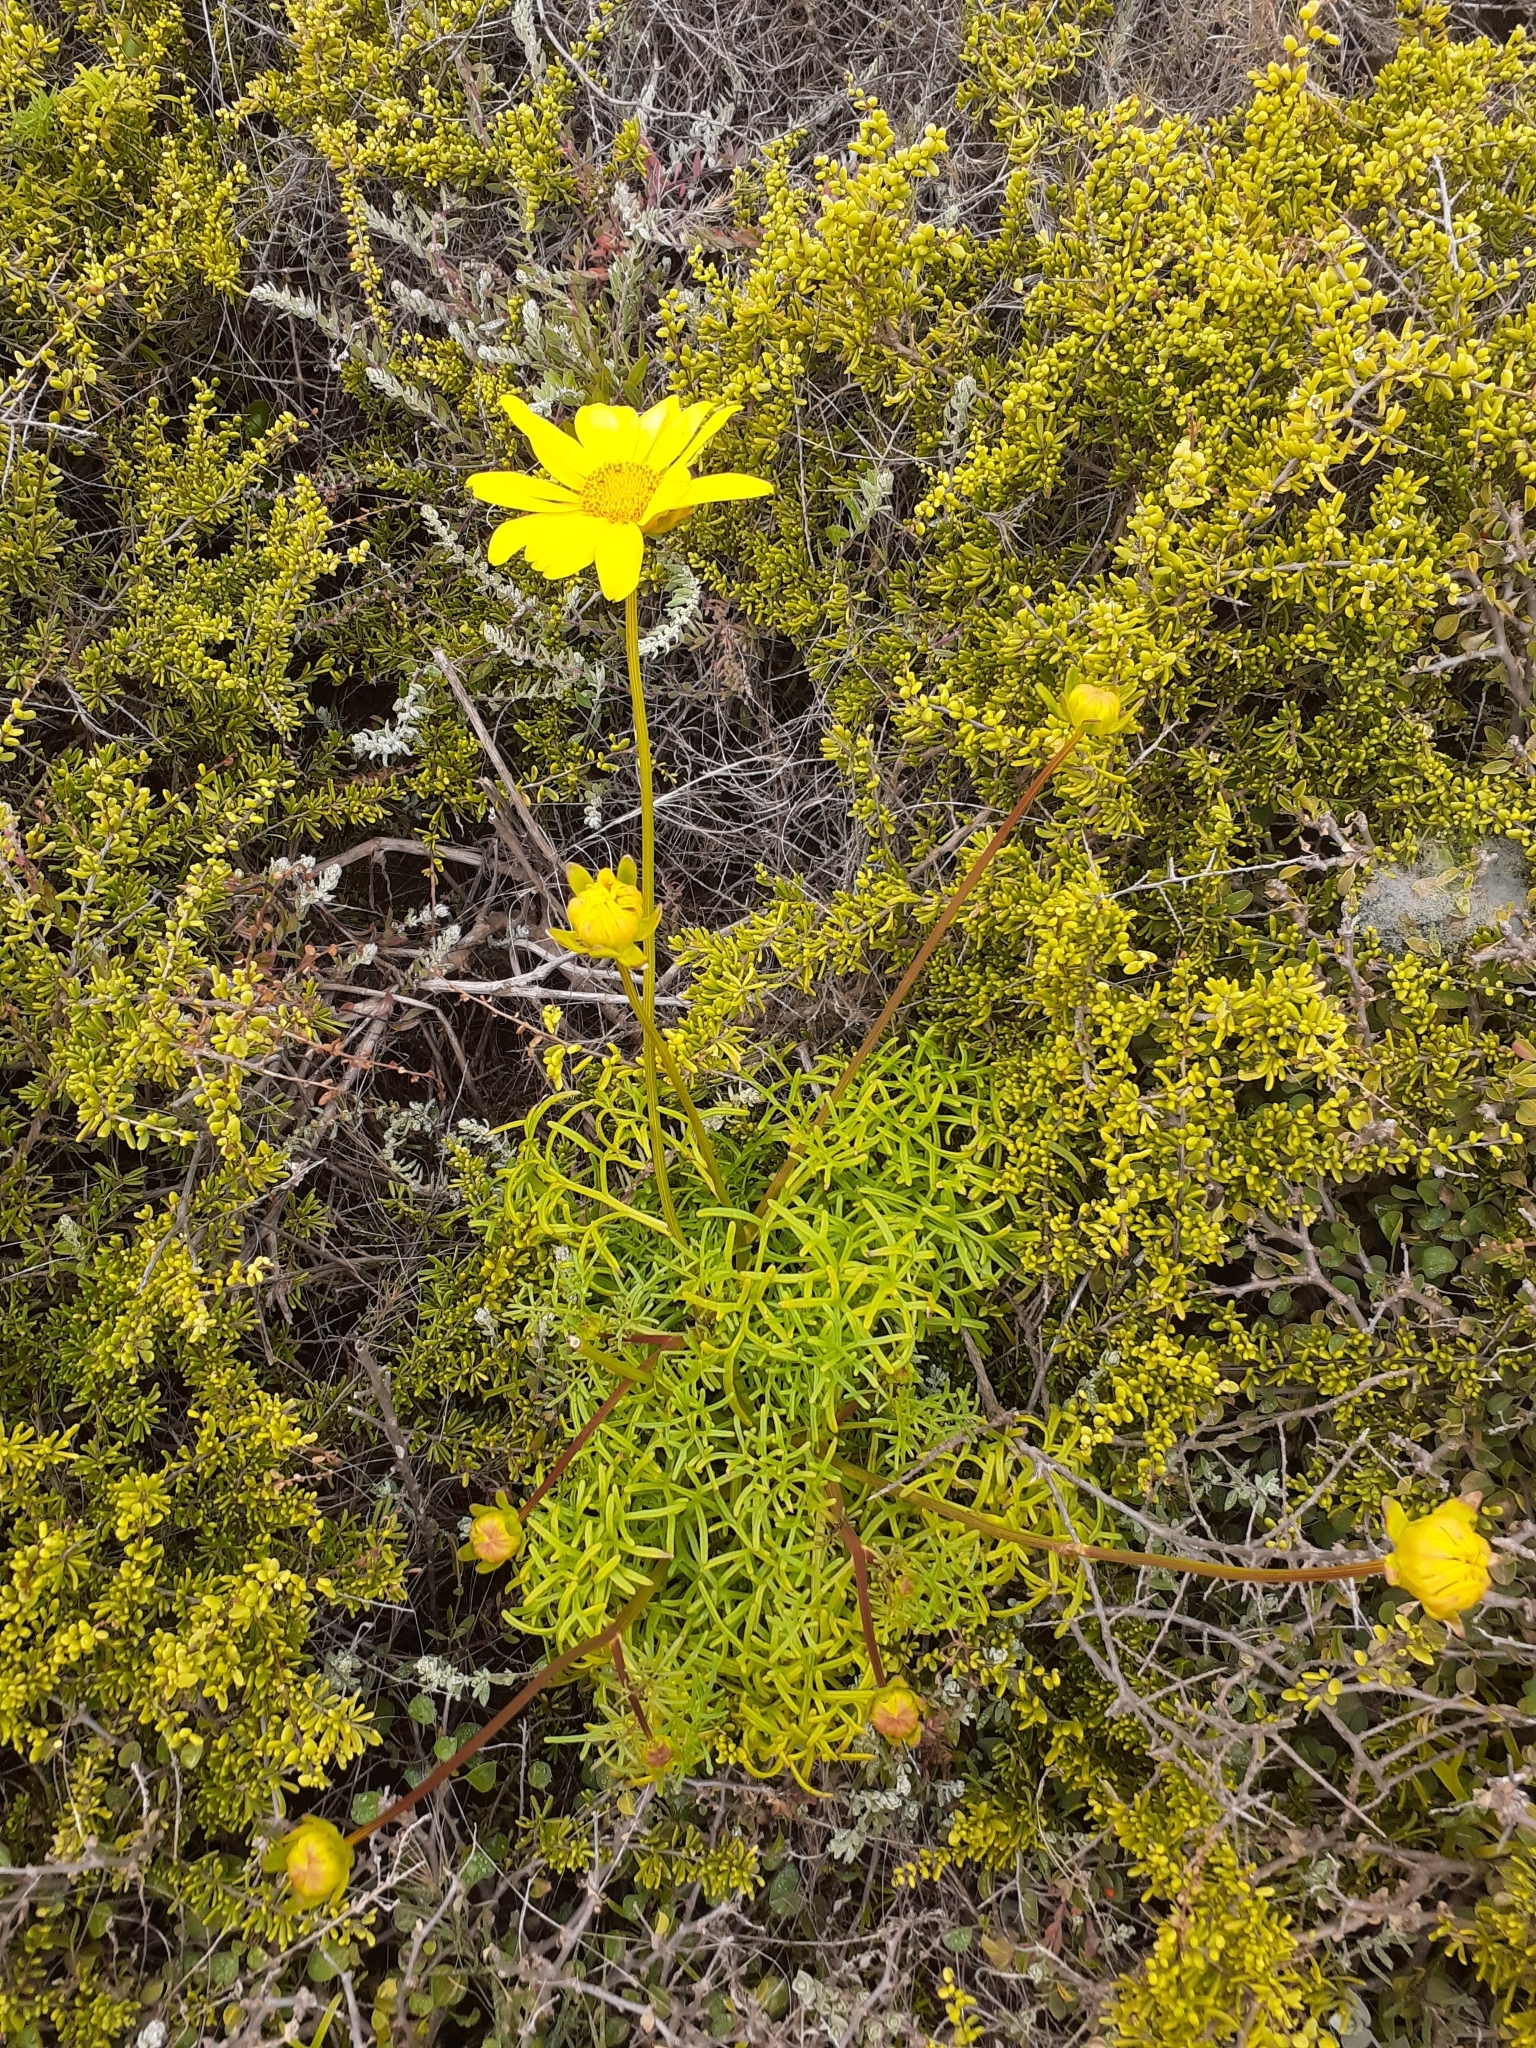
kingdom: Plantae
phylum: Tracheophyta
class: Magnoliopsida
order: Asterales
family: Asteraceae
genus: Coreopsis
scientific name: Coreopsis maritima
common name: Sea-dahlia
